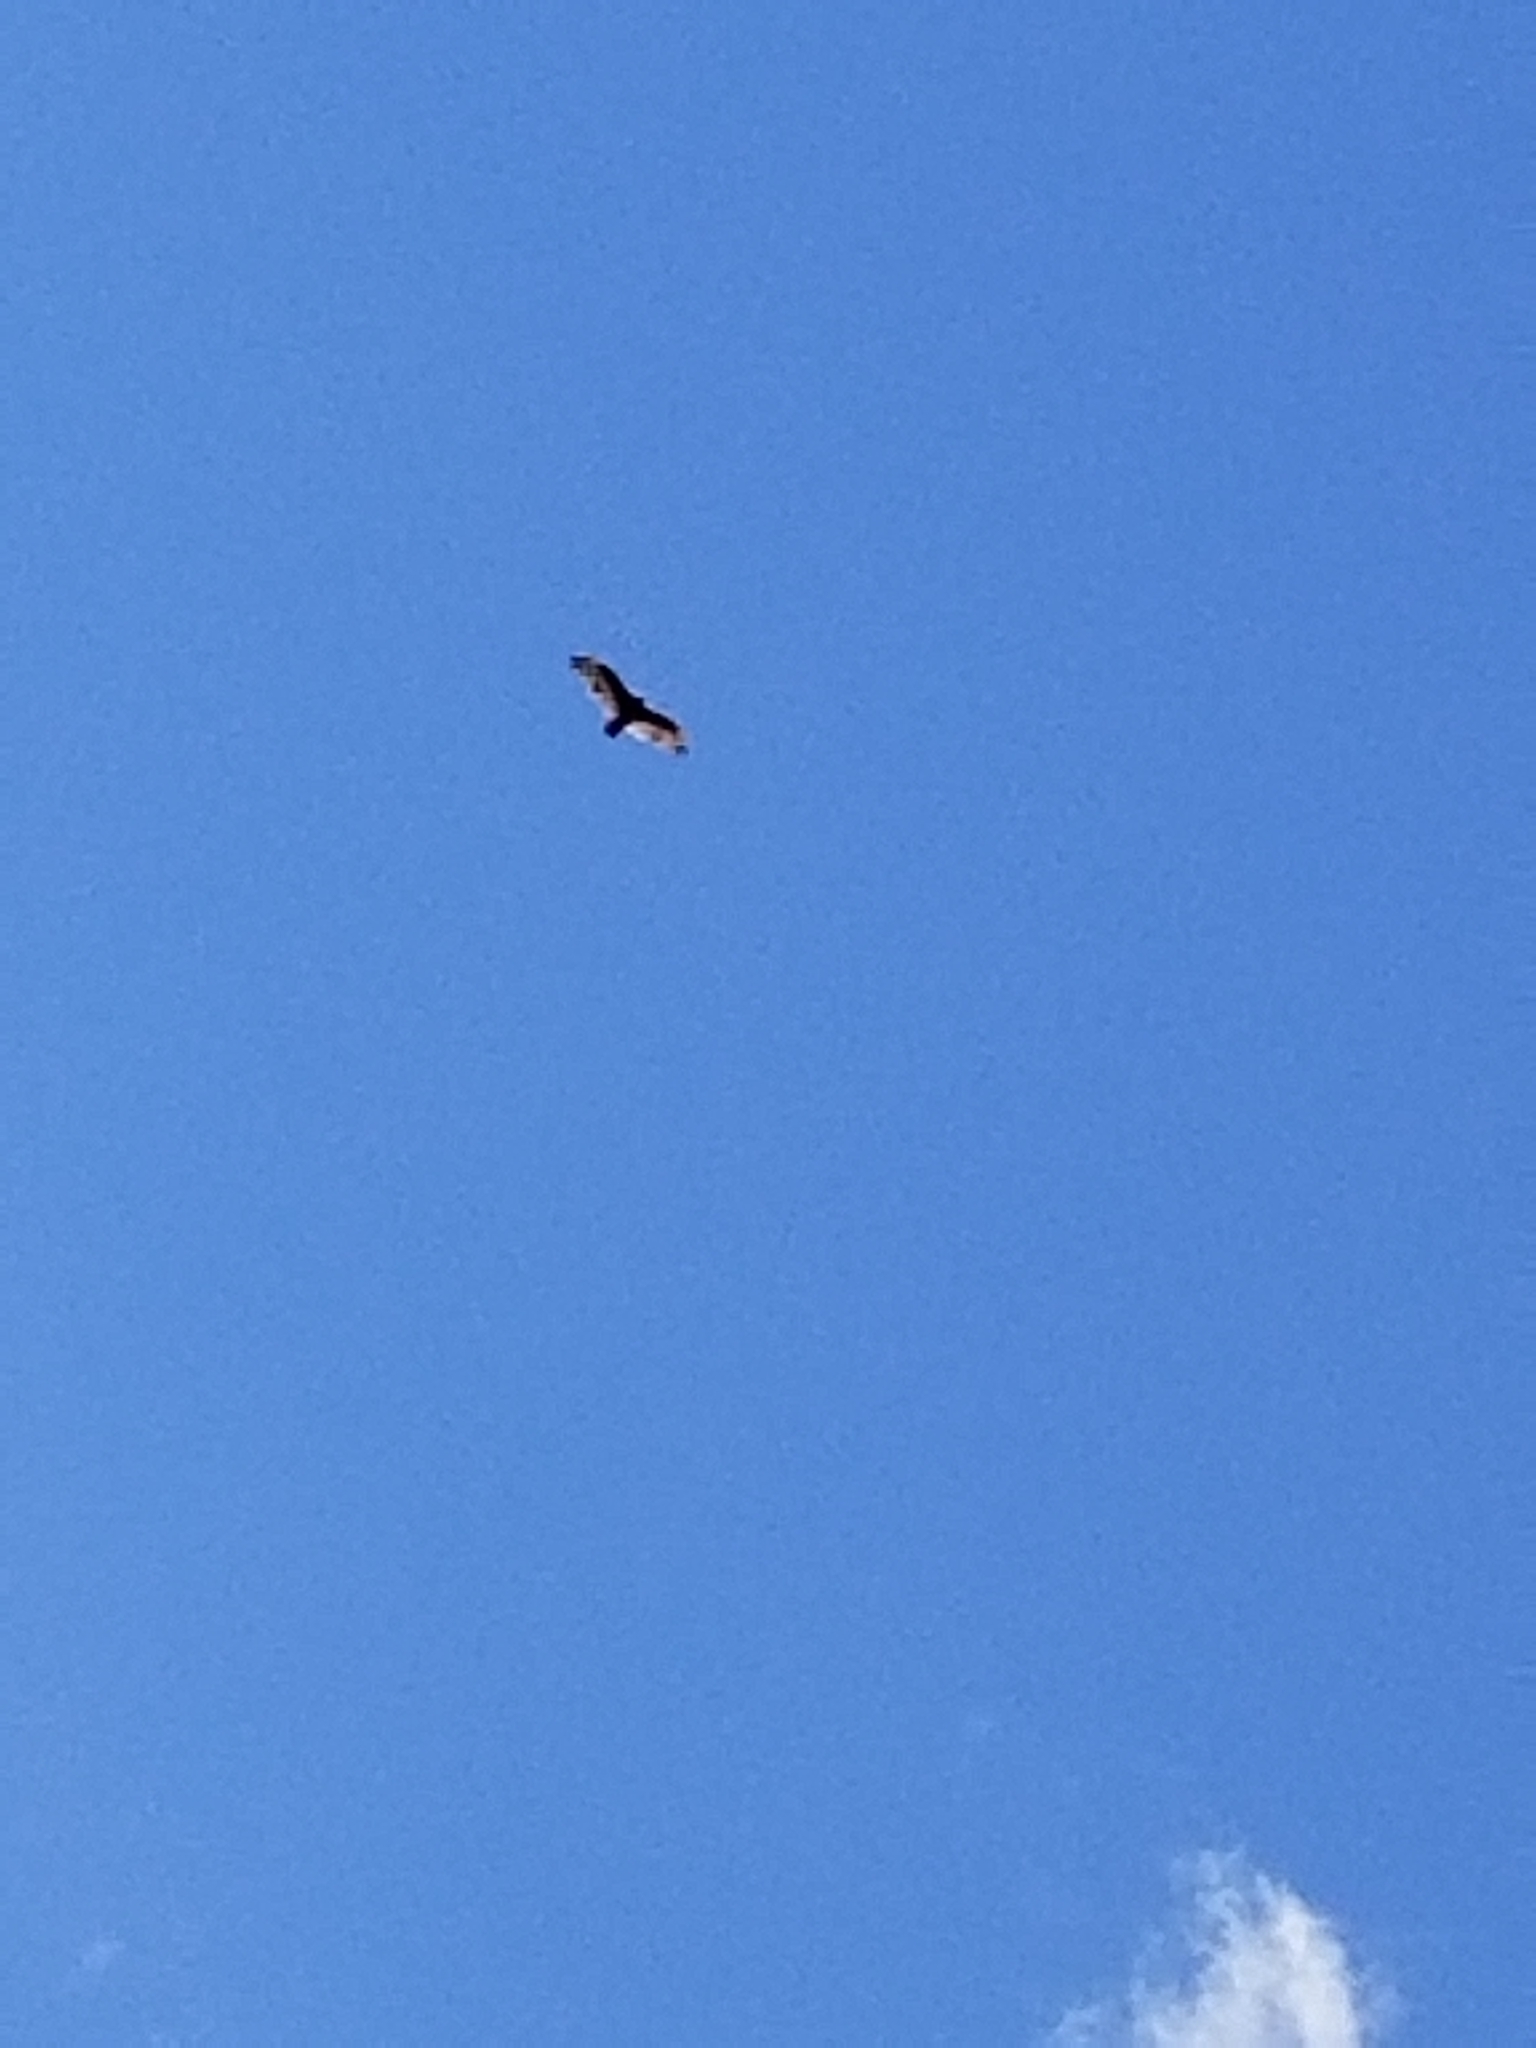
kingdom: Animalia
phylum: Chordata
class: Aves
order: Accipitriformes
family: Cathartidae
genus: Cathartes
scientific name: Cathartes aura
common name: Turkey vulture
